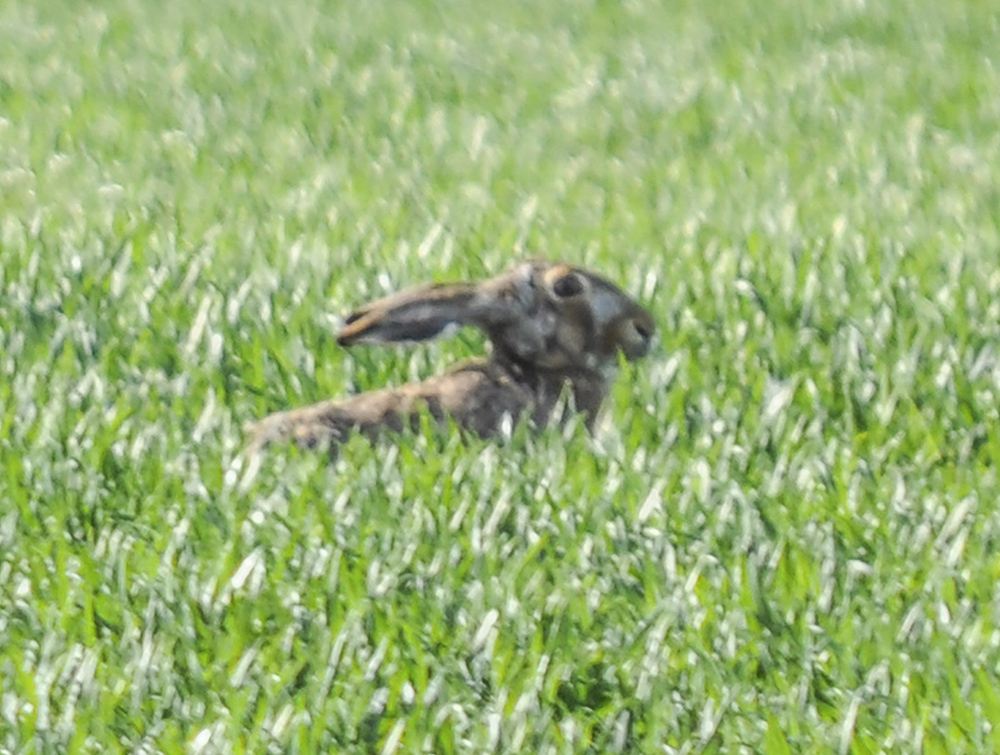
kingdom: Animalia
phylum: Chordata
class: Mammalia
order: Lagomorpha
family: Leporidae
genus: Lepus
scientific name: Lepus europaeus
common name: European hare
